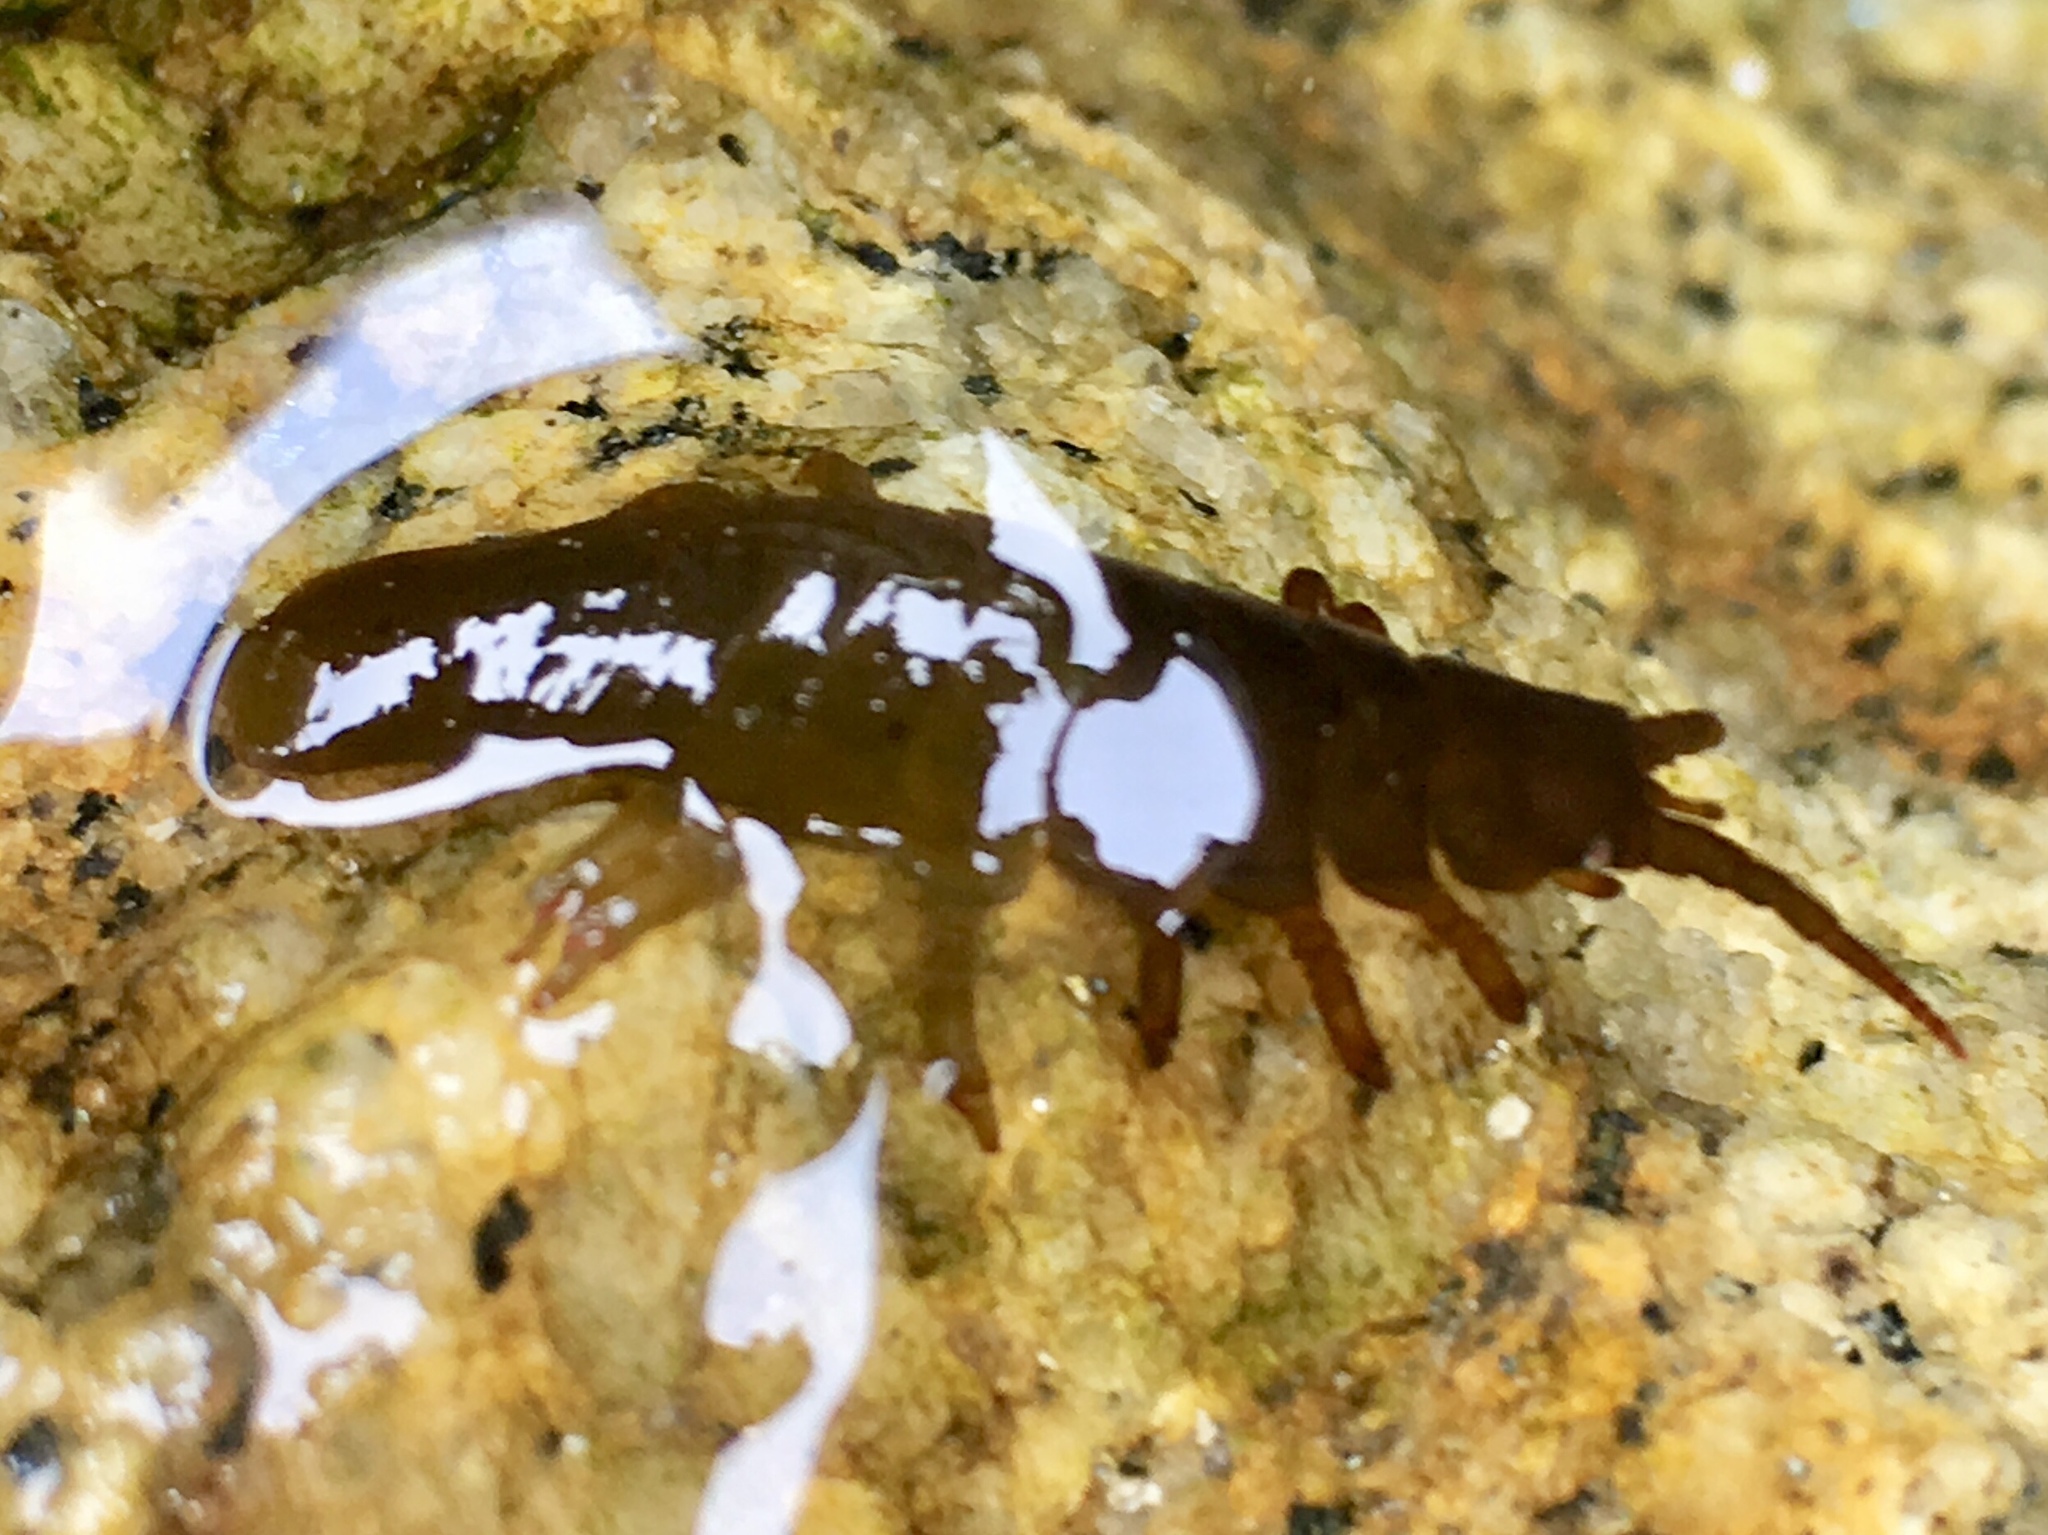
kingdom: Animalia
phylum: Arthropoda
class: Malacostraca
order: Isopoda
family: Idoteidae
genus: Pentidotea
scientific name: Pentidotea wosnesenskii
